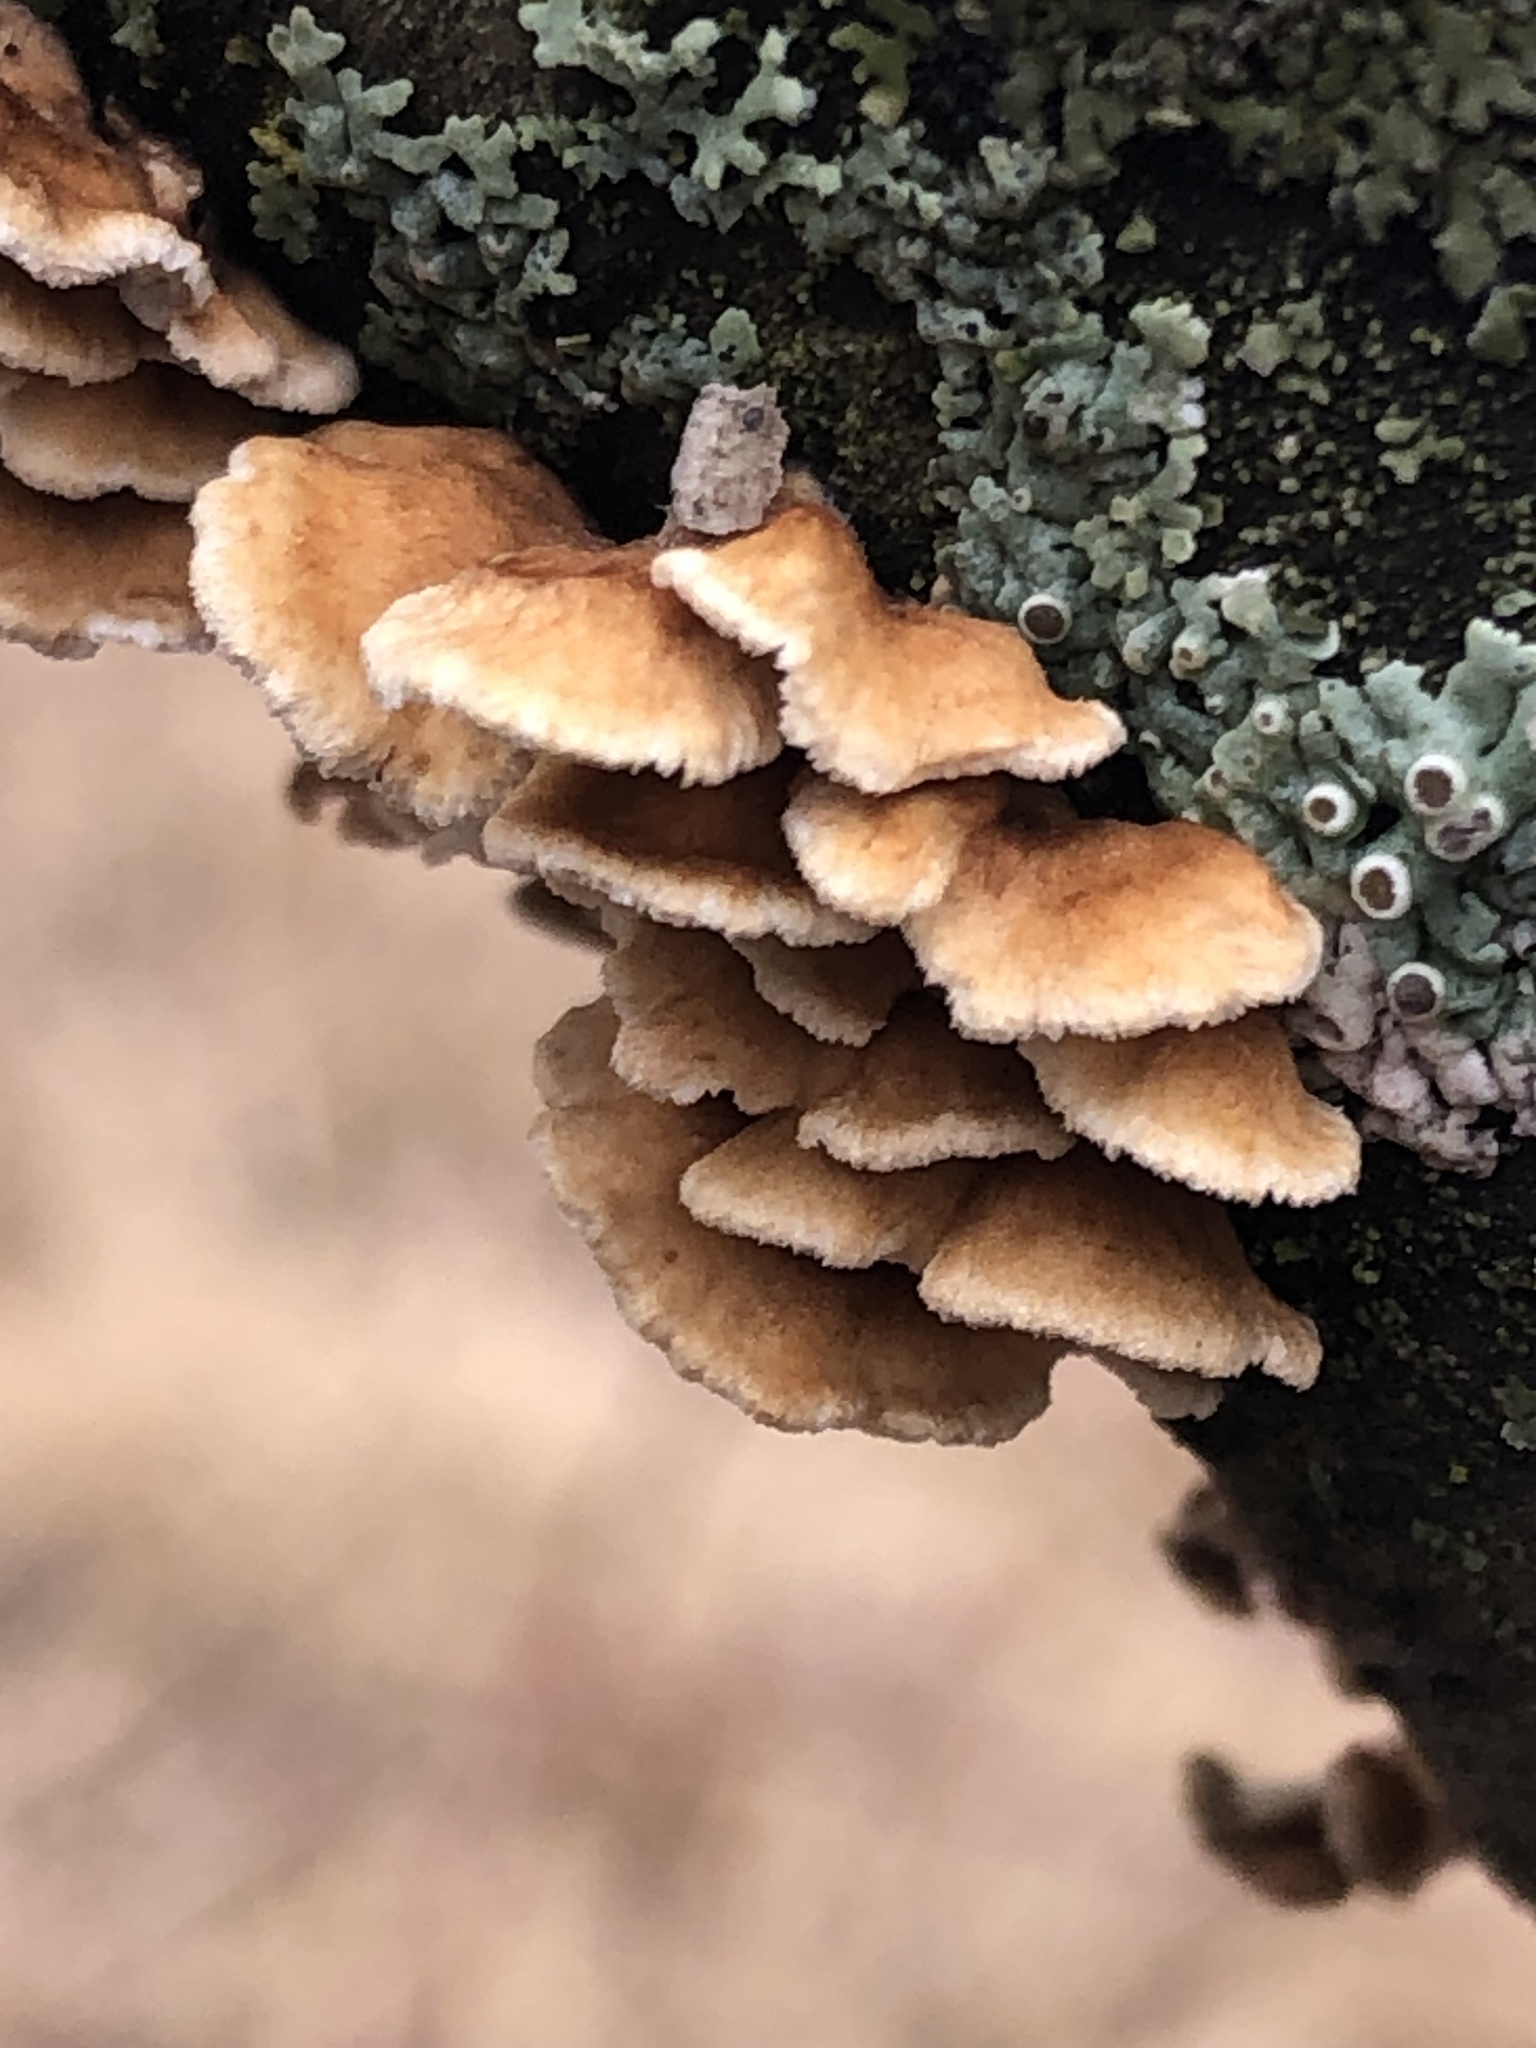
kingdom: Fungi
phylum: Basidiomycota
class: Agaricomycetes
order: Amylocorticiales
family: Amylocorticiaceae
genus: Plicaturopsis
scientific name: Plicaturopsis crispa
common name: Crimped gill
